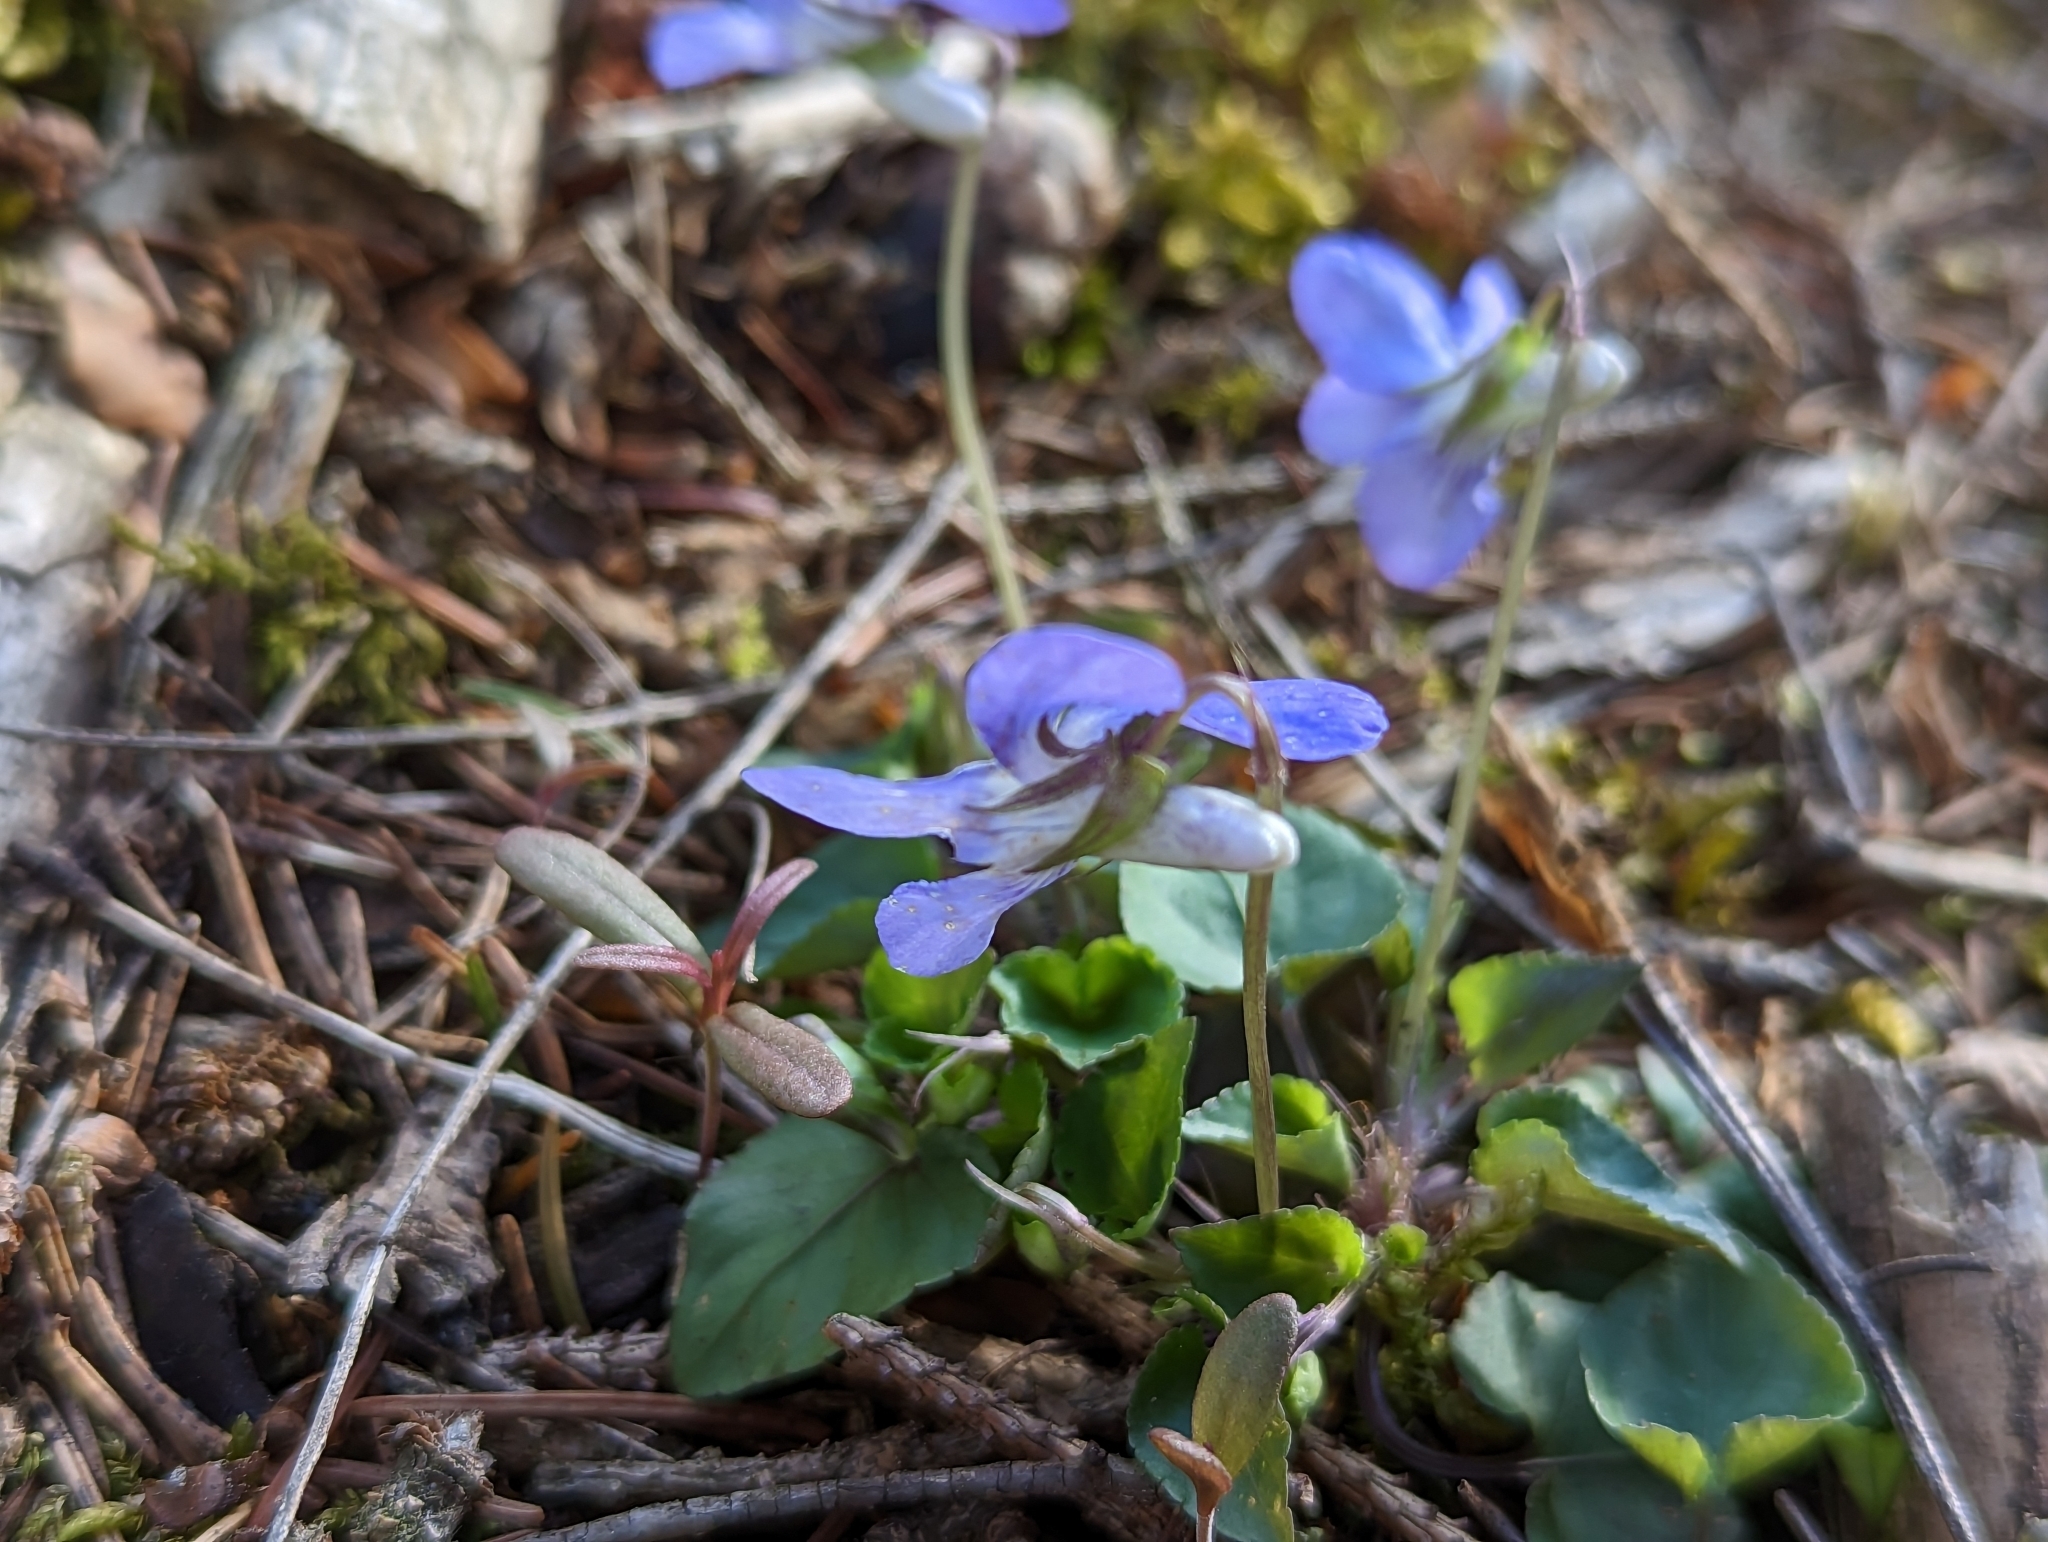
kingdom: Plantae
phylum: Tracheophyta
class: Magnoliopsida
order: Malpighiales
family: Violaceae
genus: Viola
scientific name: Viola riviniana
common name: Common dog-violet
